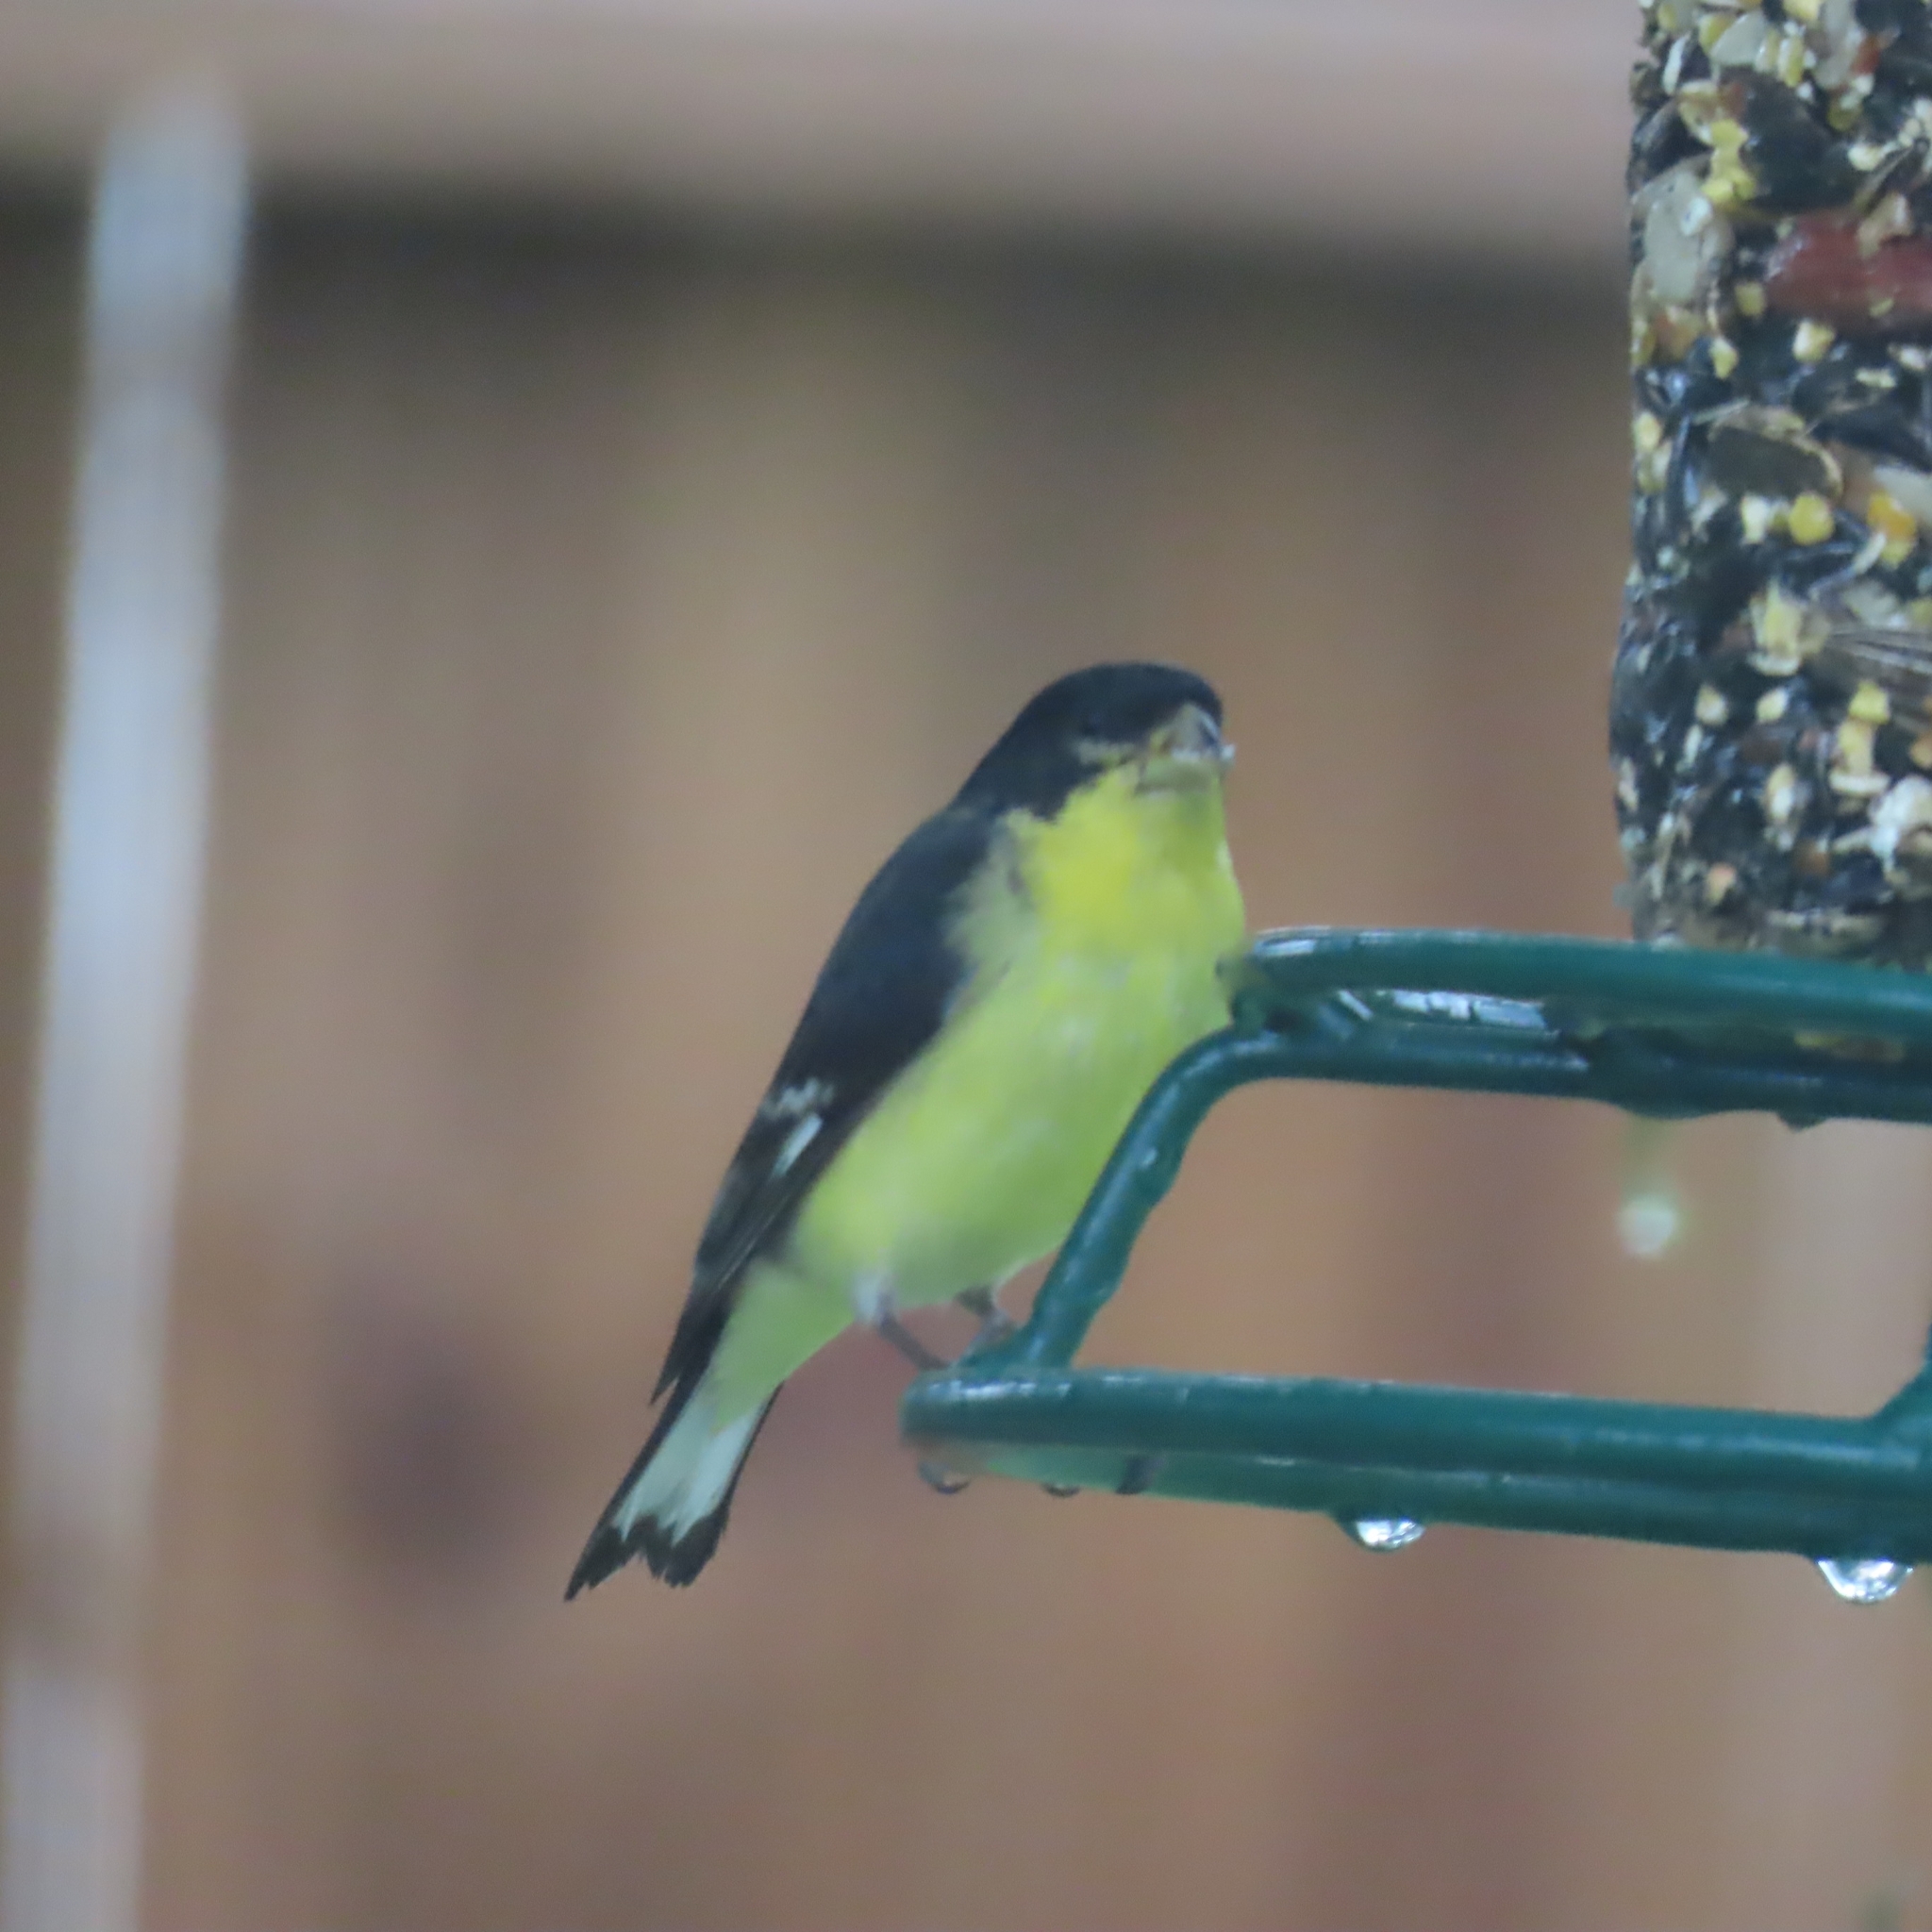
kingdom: Animalia
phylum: Chordata
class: Aves
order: Passeriformes
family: Fringillidae
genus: Spinus
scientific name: Spinus psaltria
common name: Lesser goldfinch
